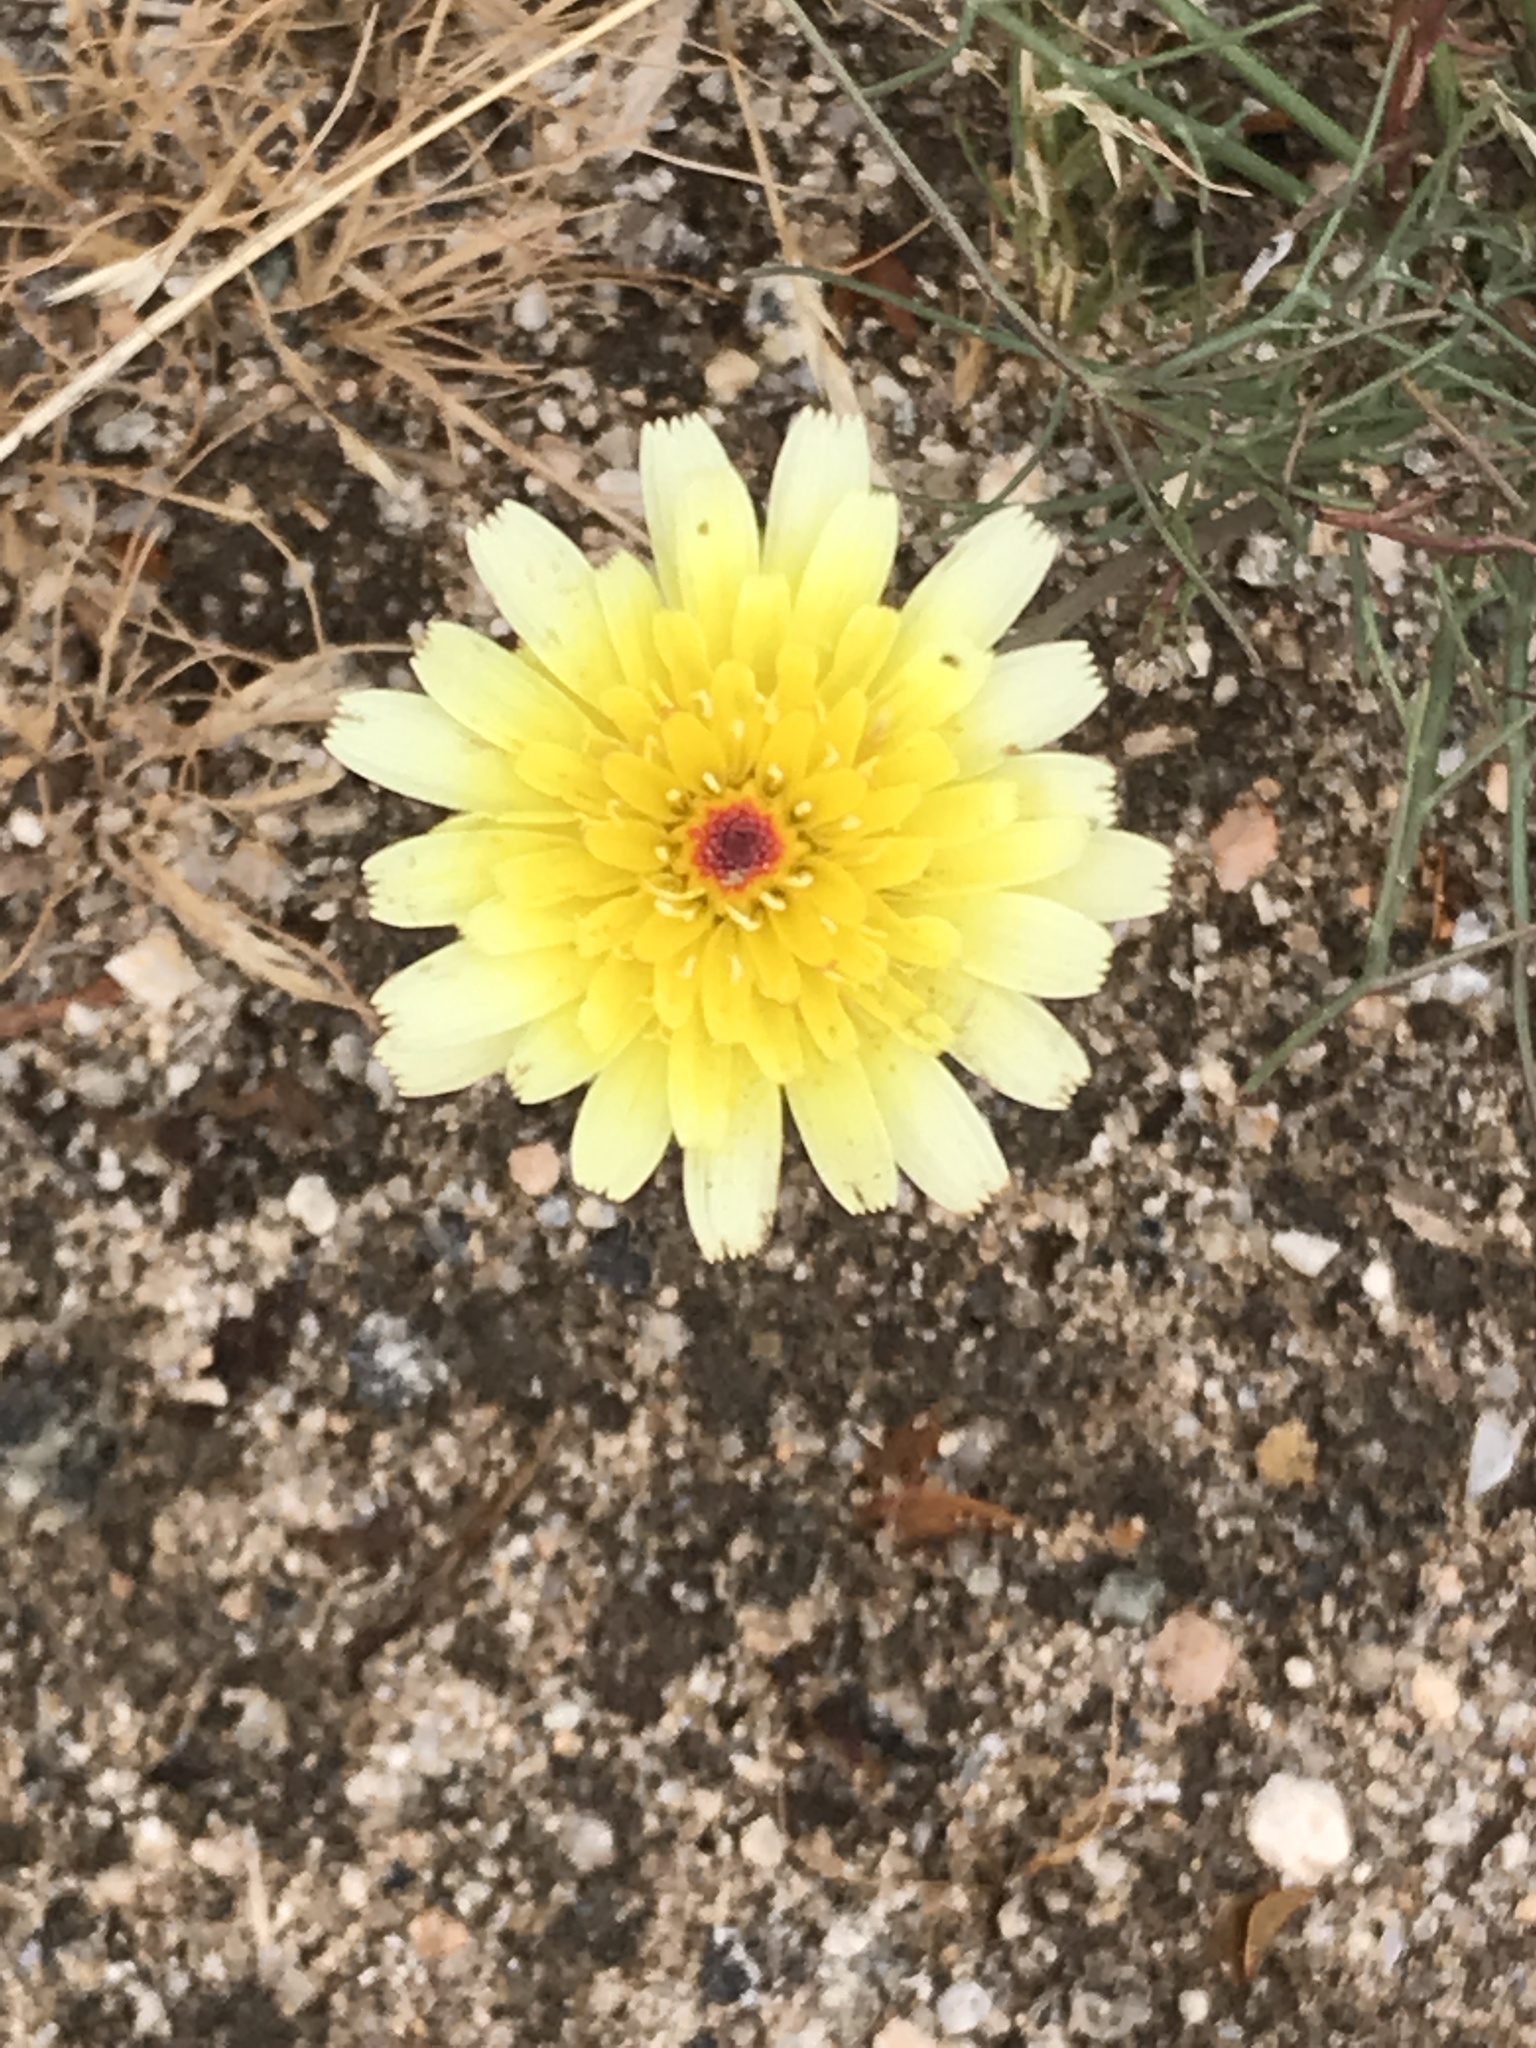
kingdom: Plantae
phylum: Tracheophyta
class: Magnoliopsida
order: Asterales
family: Asteraceae
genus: Malacothrix
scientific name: Malacothrix glabrata
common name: Smooth desert-dandelion
